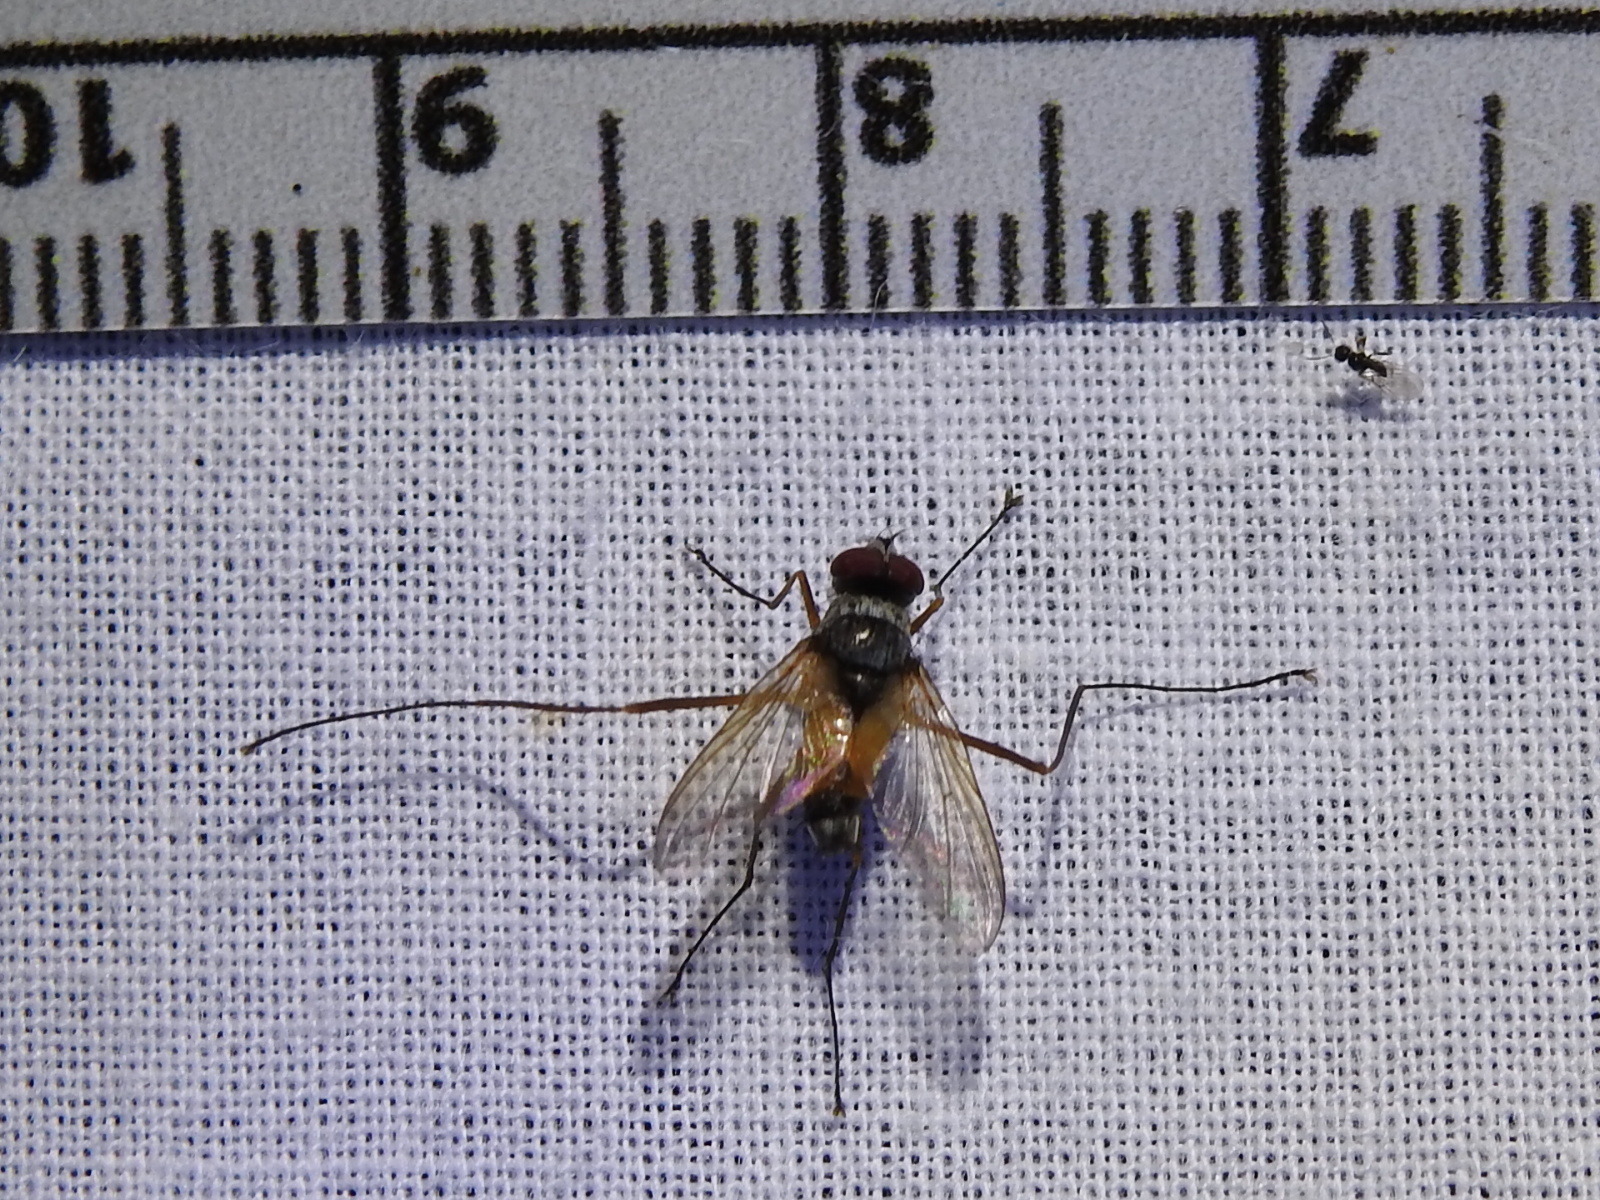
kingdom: Animalia
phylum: Arthropoda
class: Insecta
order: Diptera
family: Tachinidae
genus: Cholomyia
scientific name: Cholomyia inaequipes
